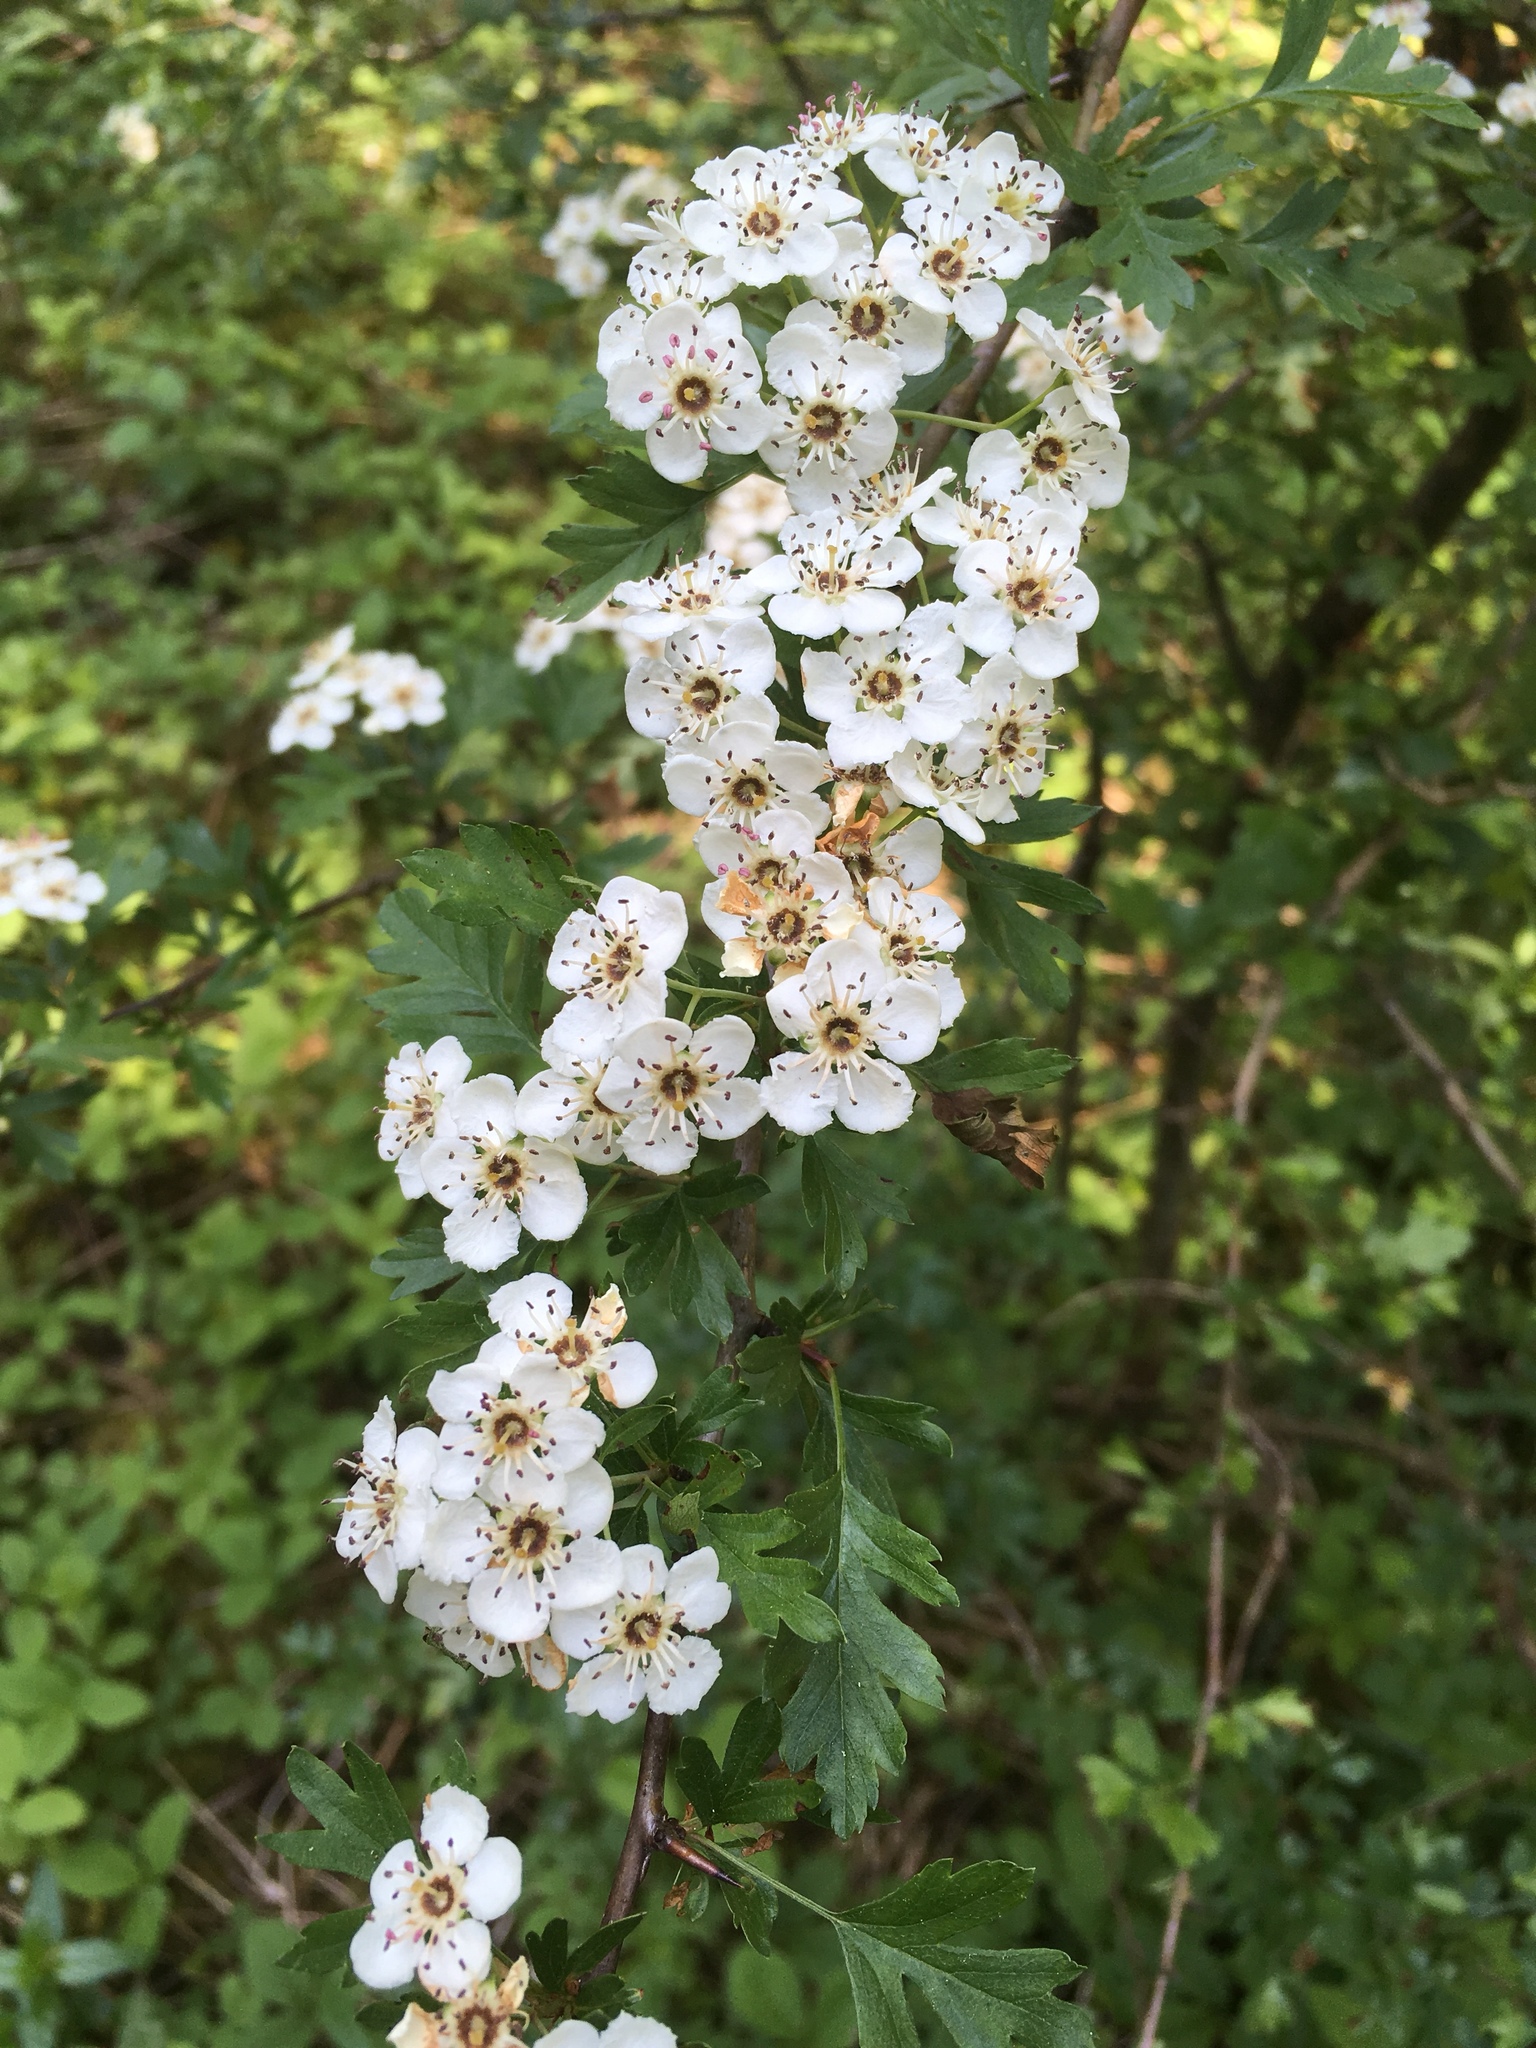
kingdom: Plantae
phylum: Tracheophyta
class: Magnoliopsida
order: Rosales
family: Rosaceae
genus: Crataegus
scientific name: Crataegus laevigata
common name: Midland hawthorn
